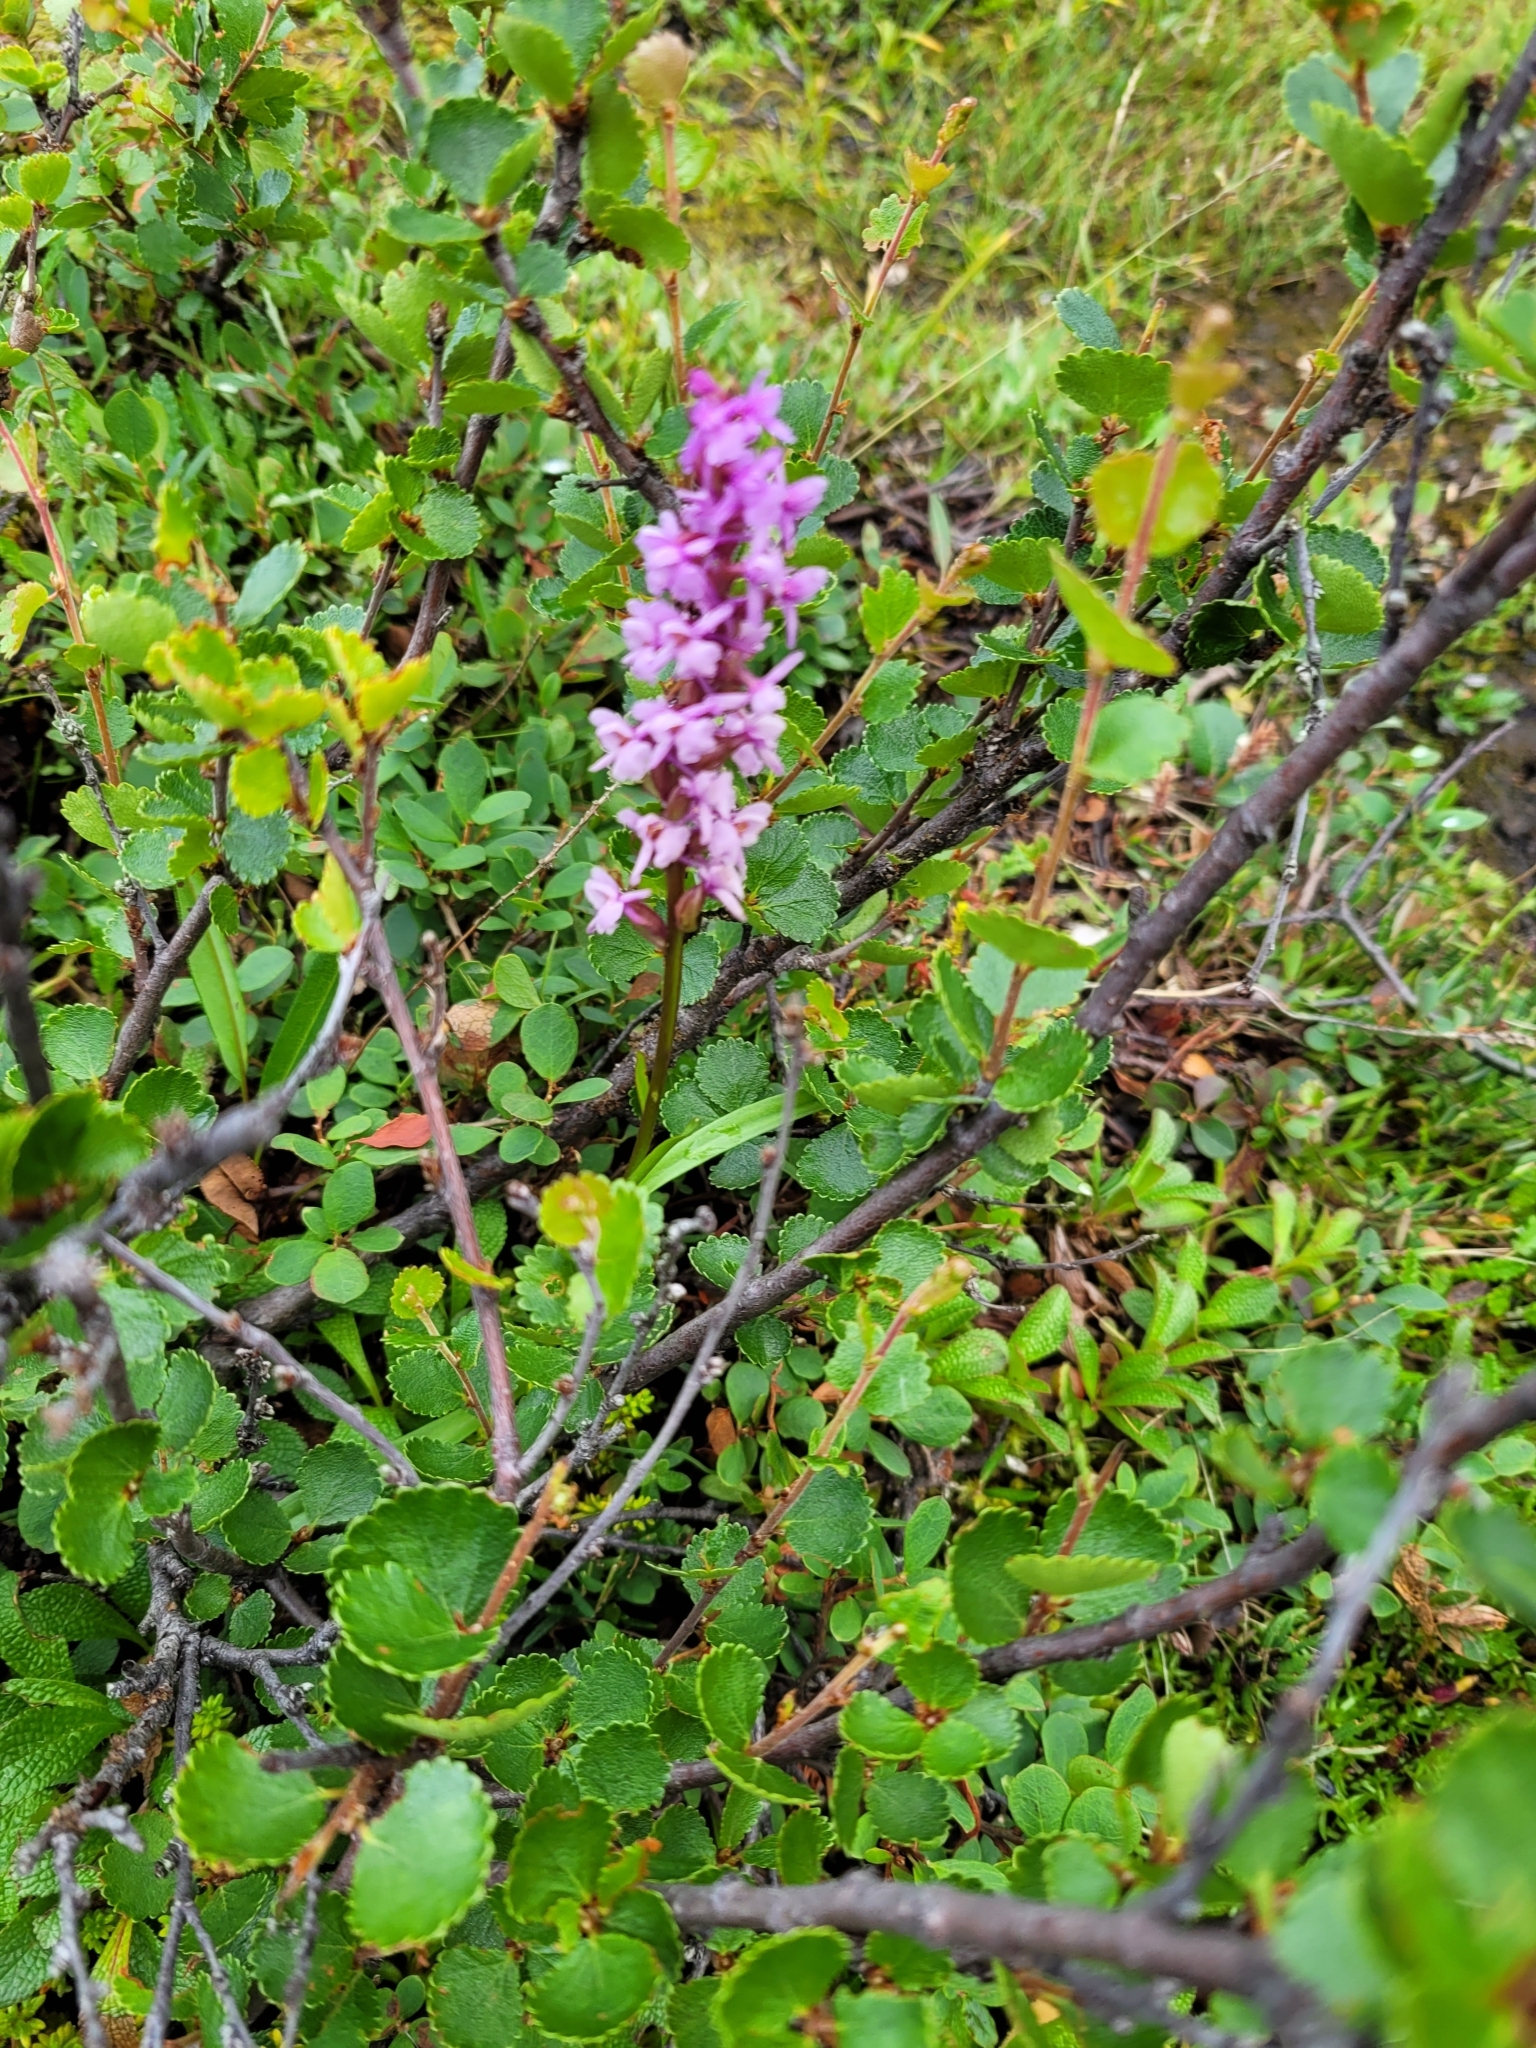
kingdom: Plantae
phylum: Tracheophyta
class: Liliopsida
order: Asparagales
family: Orchidaceae
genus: Gymnadenia
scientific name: Gymnadenia conopsea
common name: Fragrant orchid
